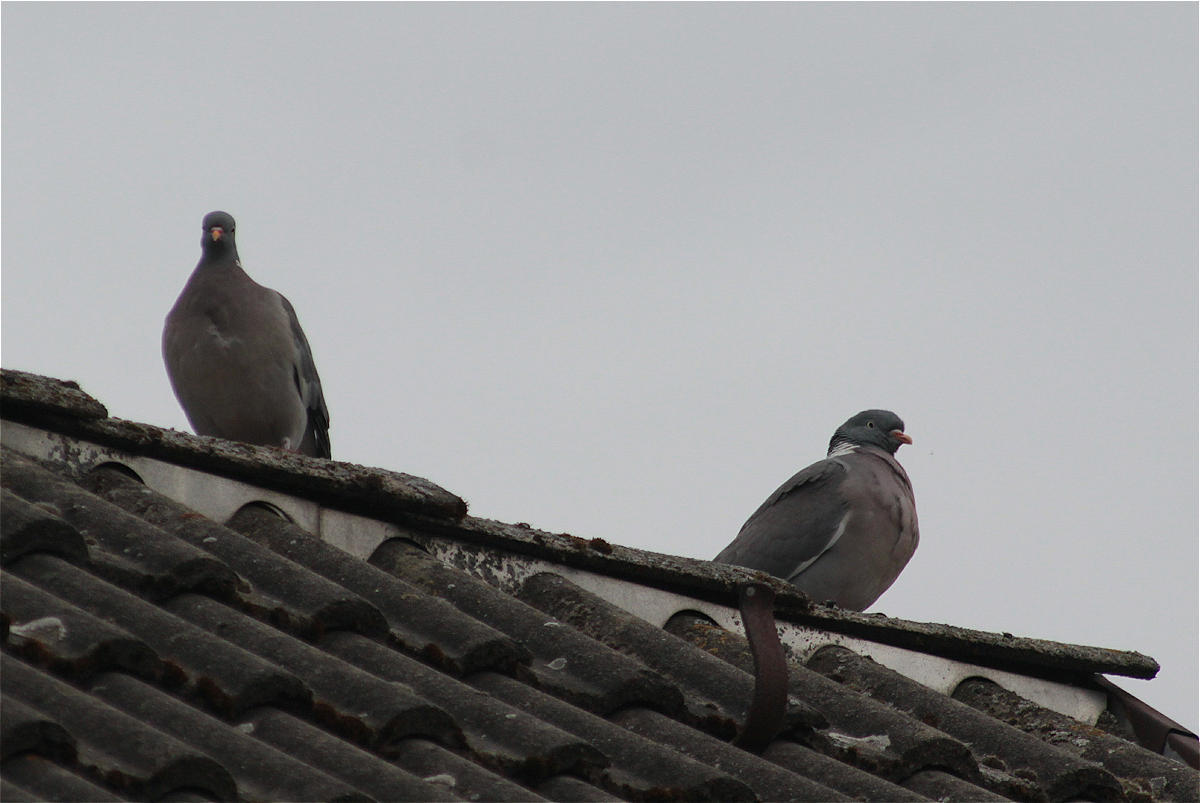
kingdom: Animalia
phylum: Chordata
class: Aves
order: Columbiformes
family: Columbidae
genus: Columba
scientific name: Columba palumbus
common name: Common wood pigeon
